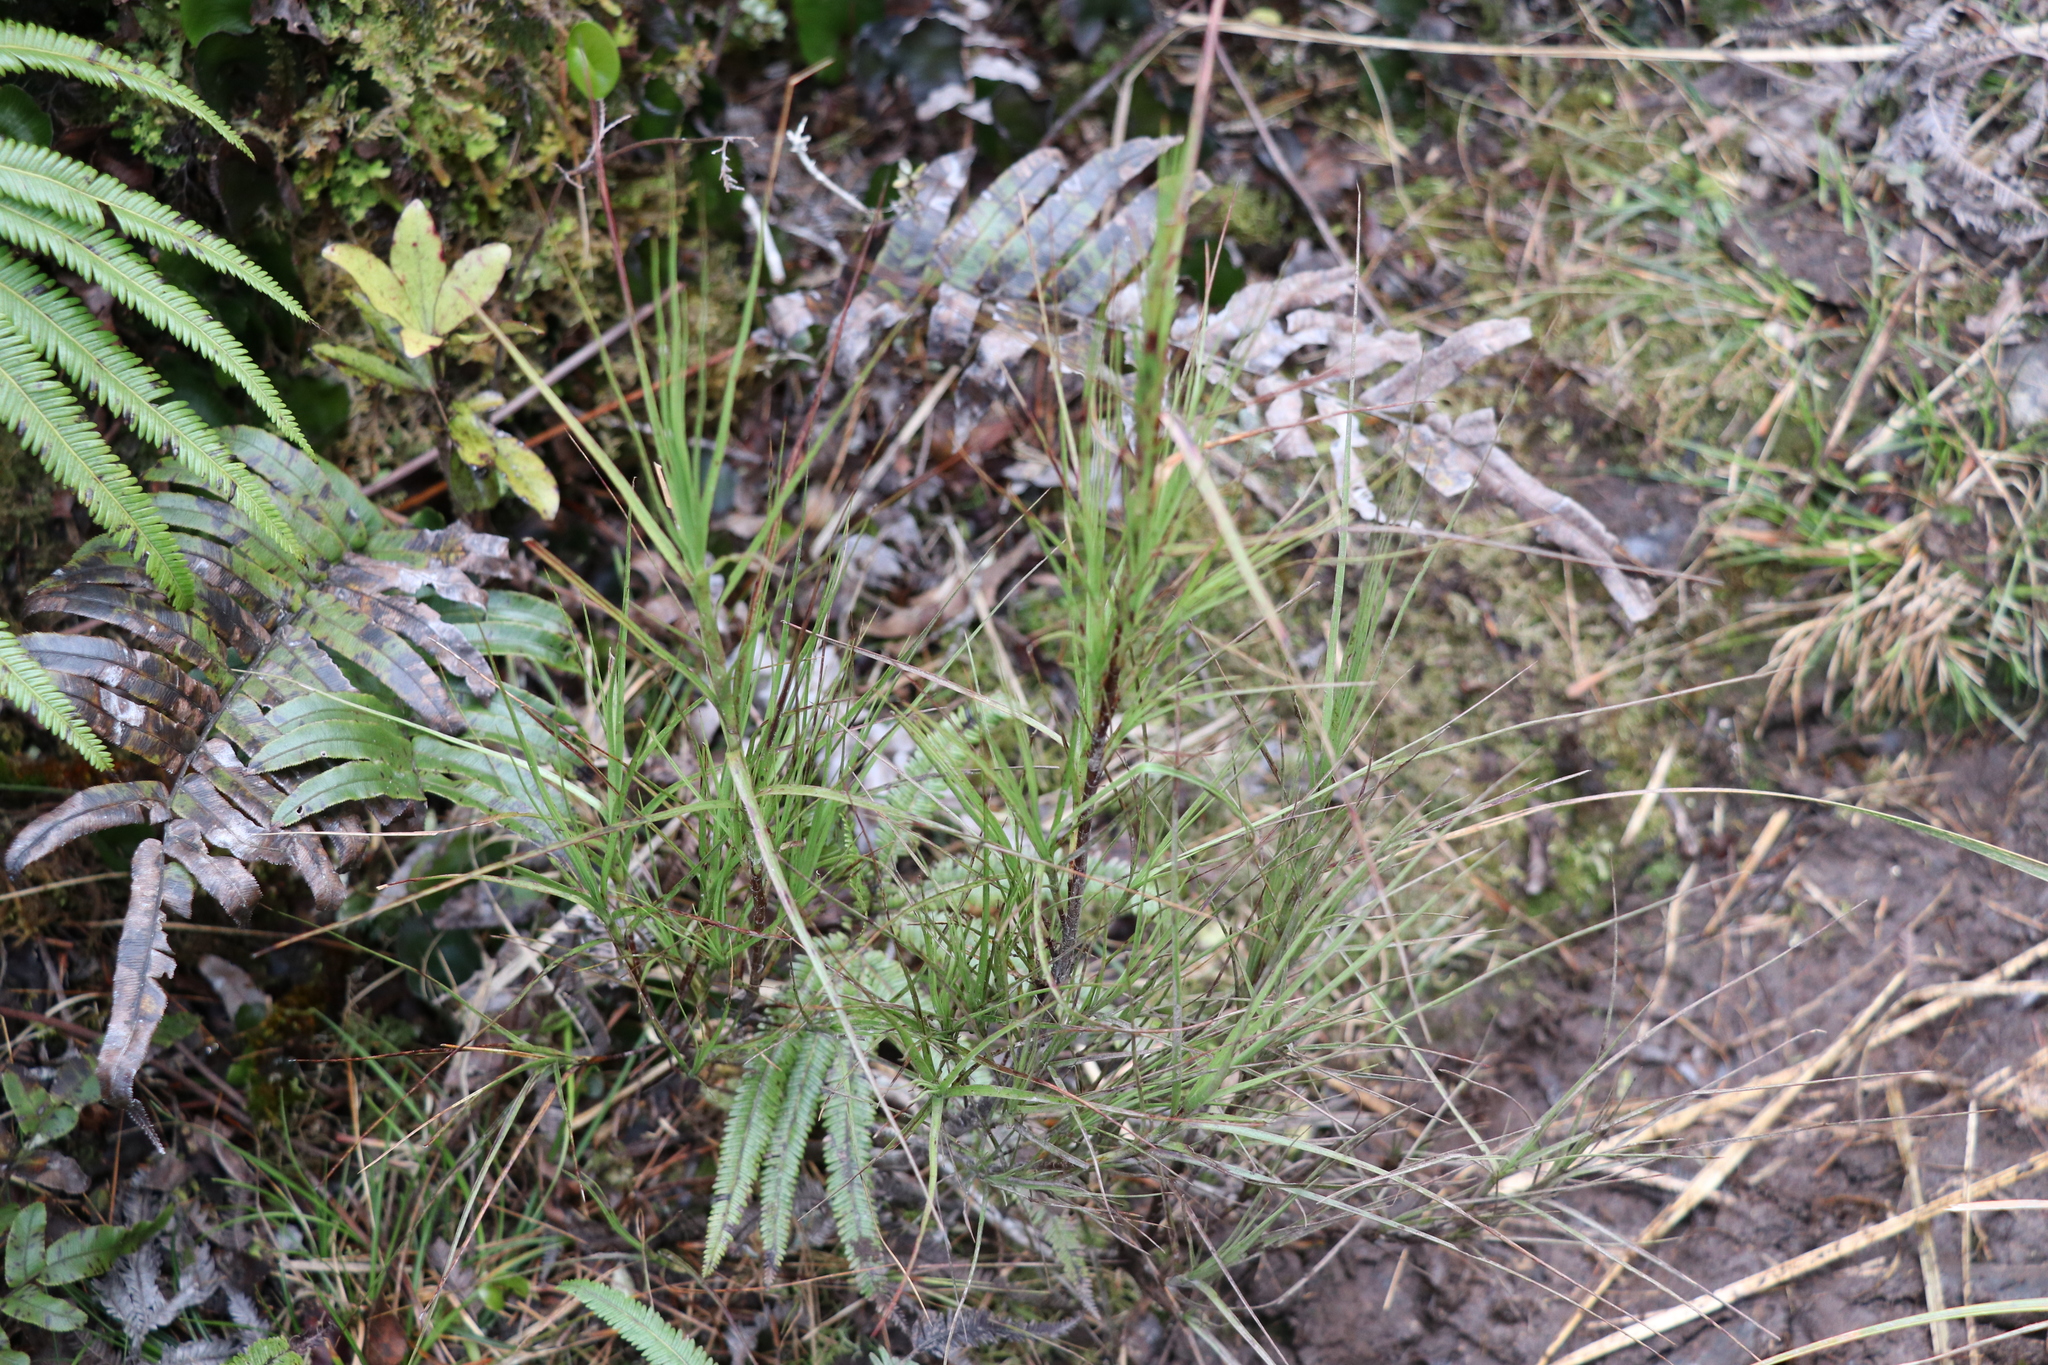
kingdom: Plantae
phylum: Tracheophyta
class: Magnoliopsida
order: Ericales
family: Ericaceae
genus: Dracophyllum
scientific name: Dracophyllum filifolium
